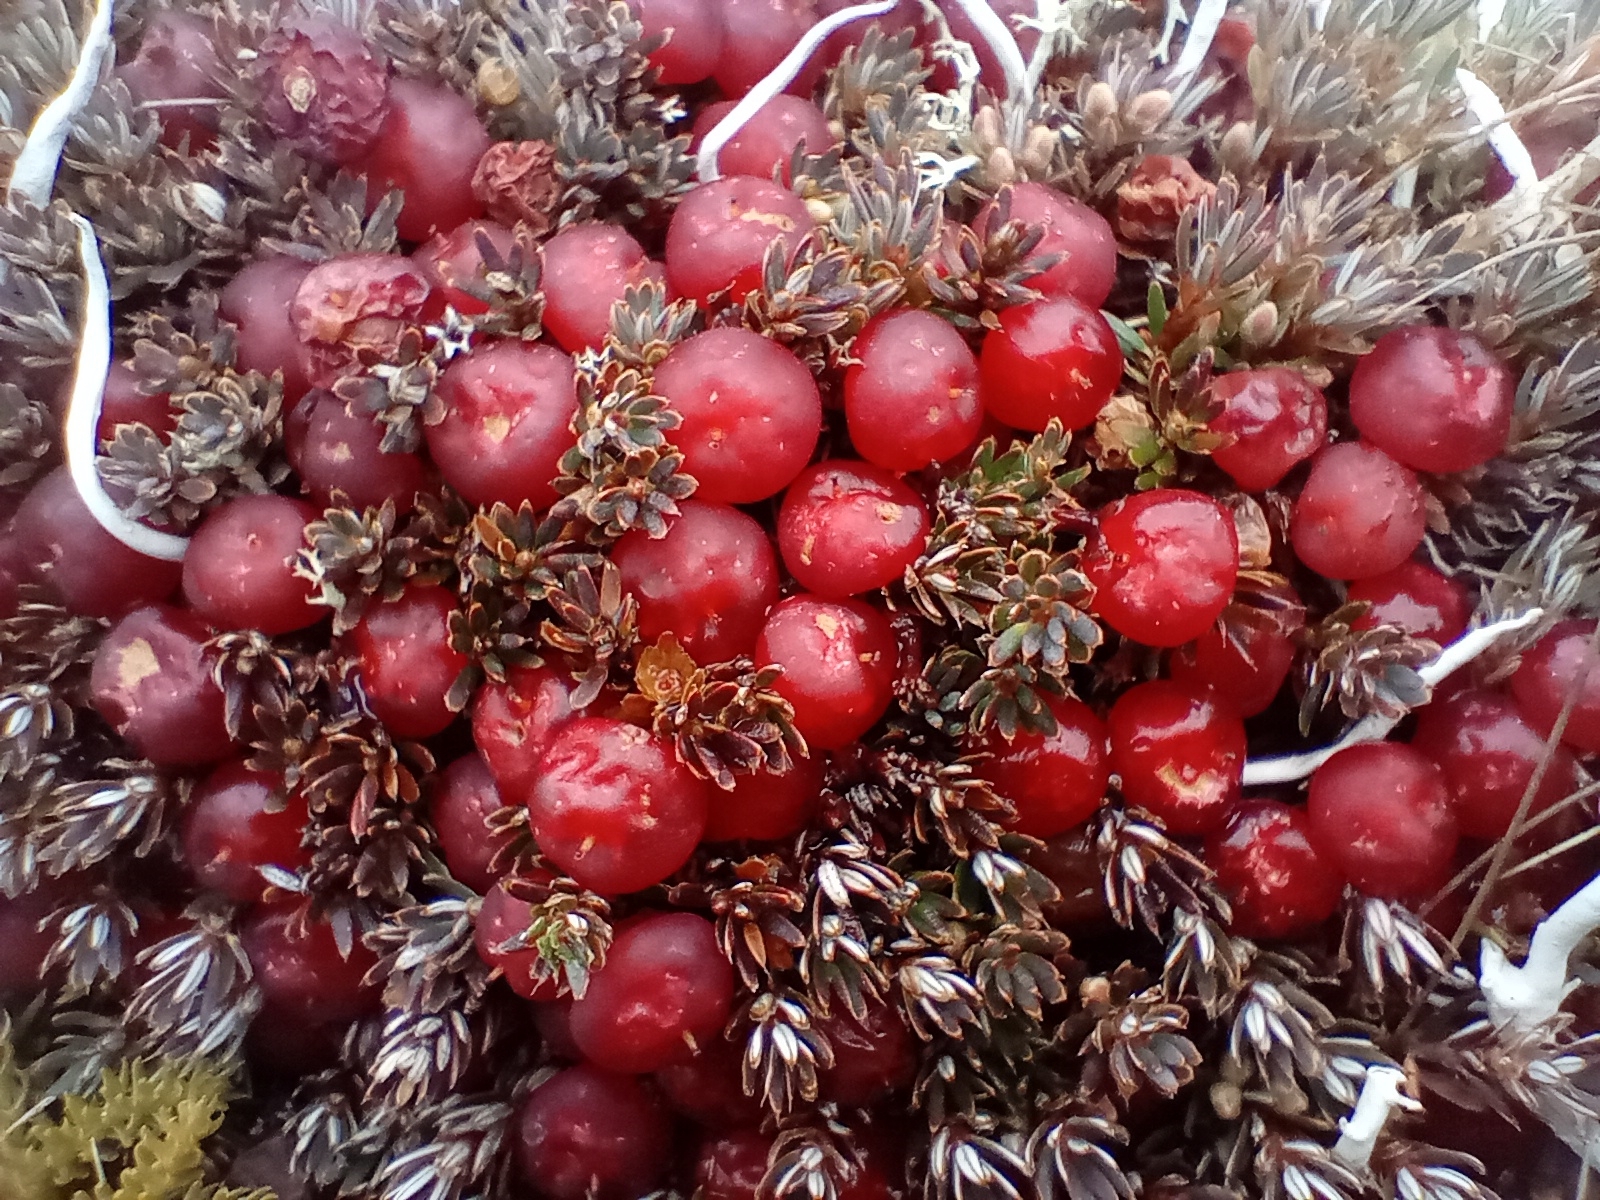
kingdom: Plantae
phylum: Tracheophyta
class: Magnoliopsida
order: Ericales
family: Ericaceae
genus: Montitega
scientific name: Montitega dealbata
